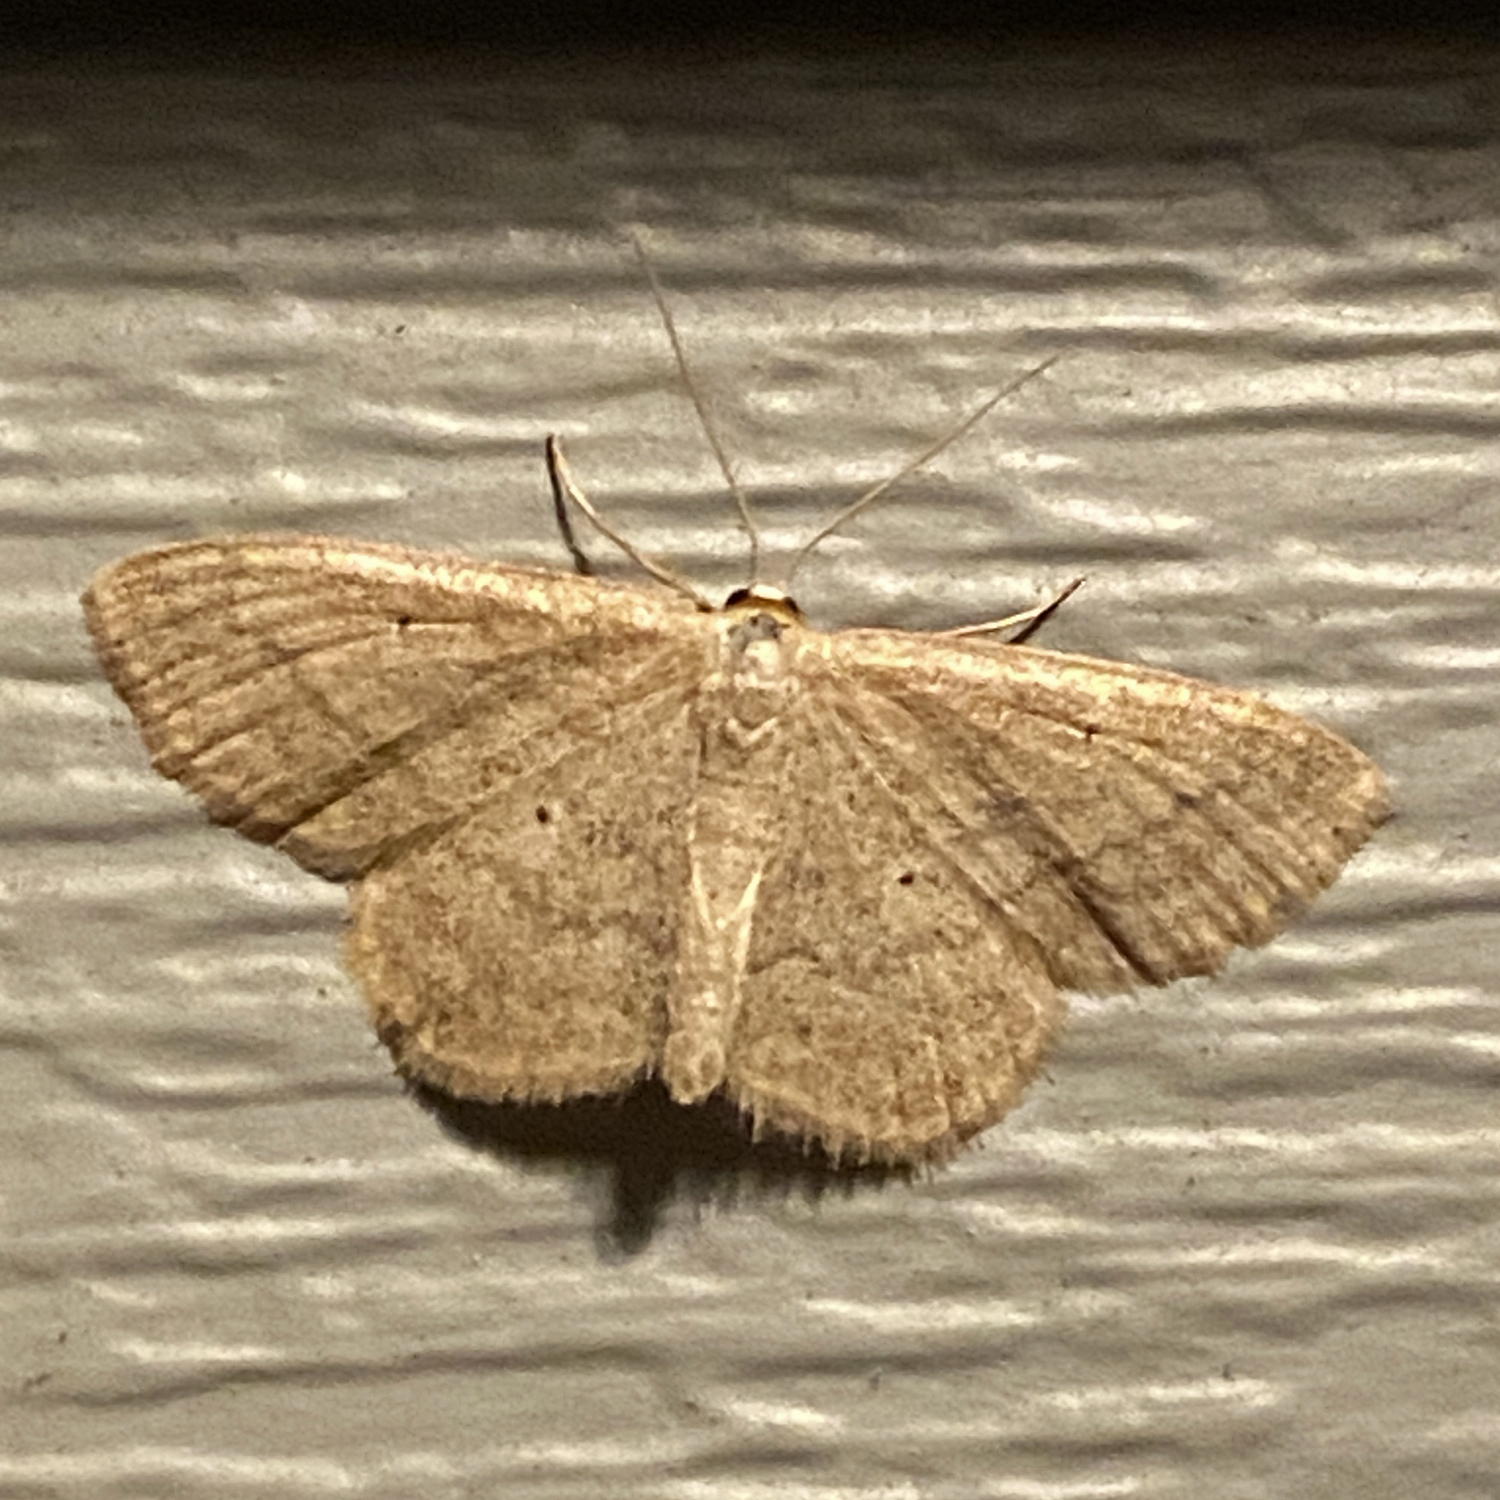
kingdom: Animalia
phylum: Arthropoda
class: Insecta
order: Lepidoptera
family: Geometridae
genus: Scopula
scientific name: Scopula inductata
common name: Soft-lined wave
